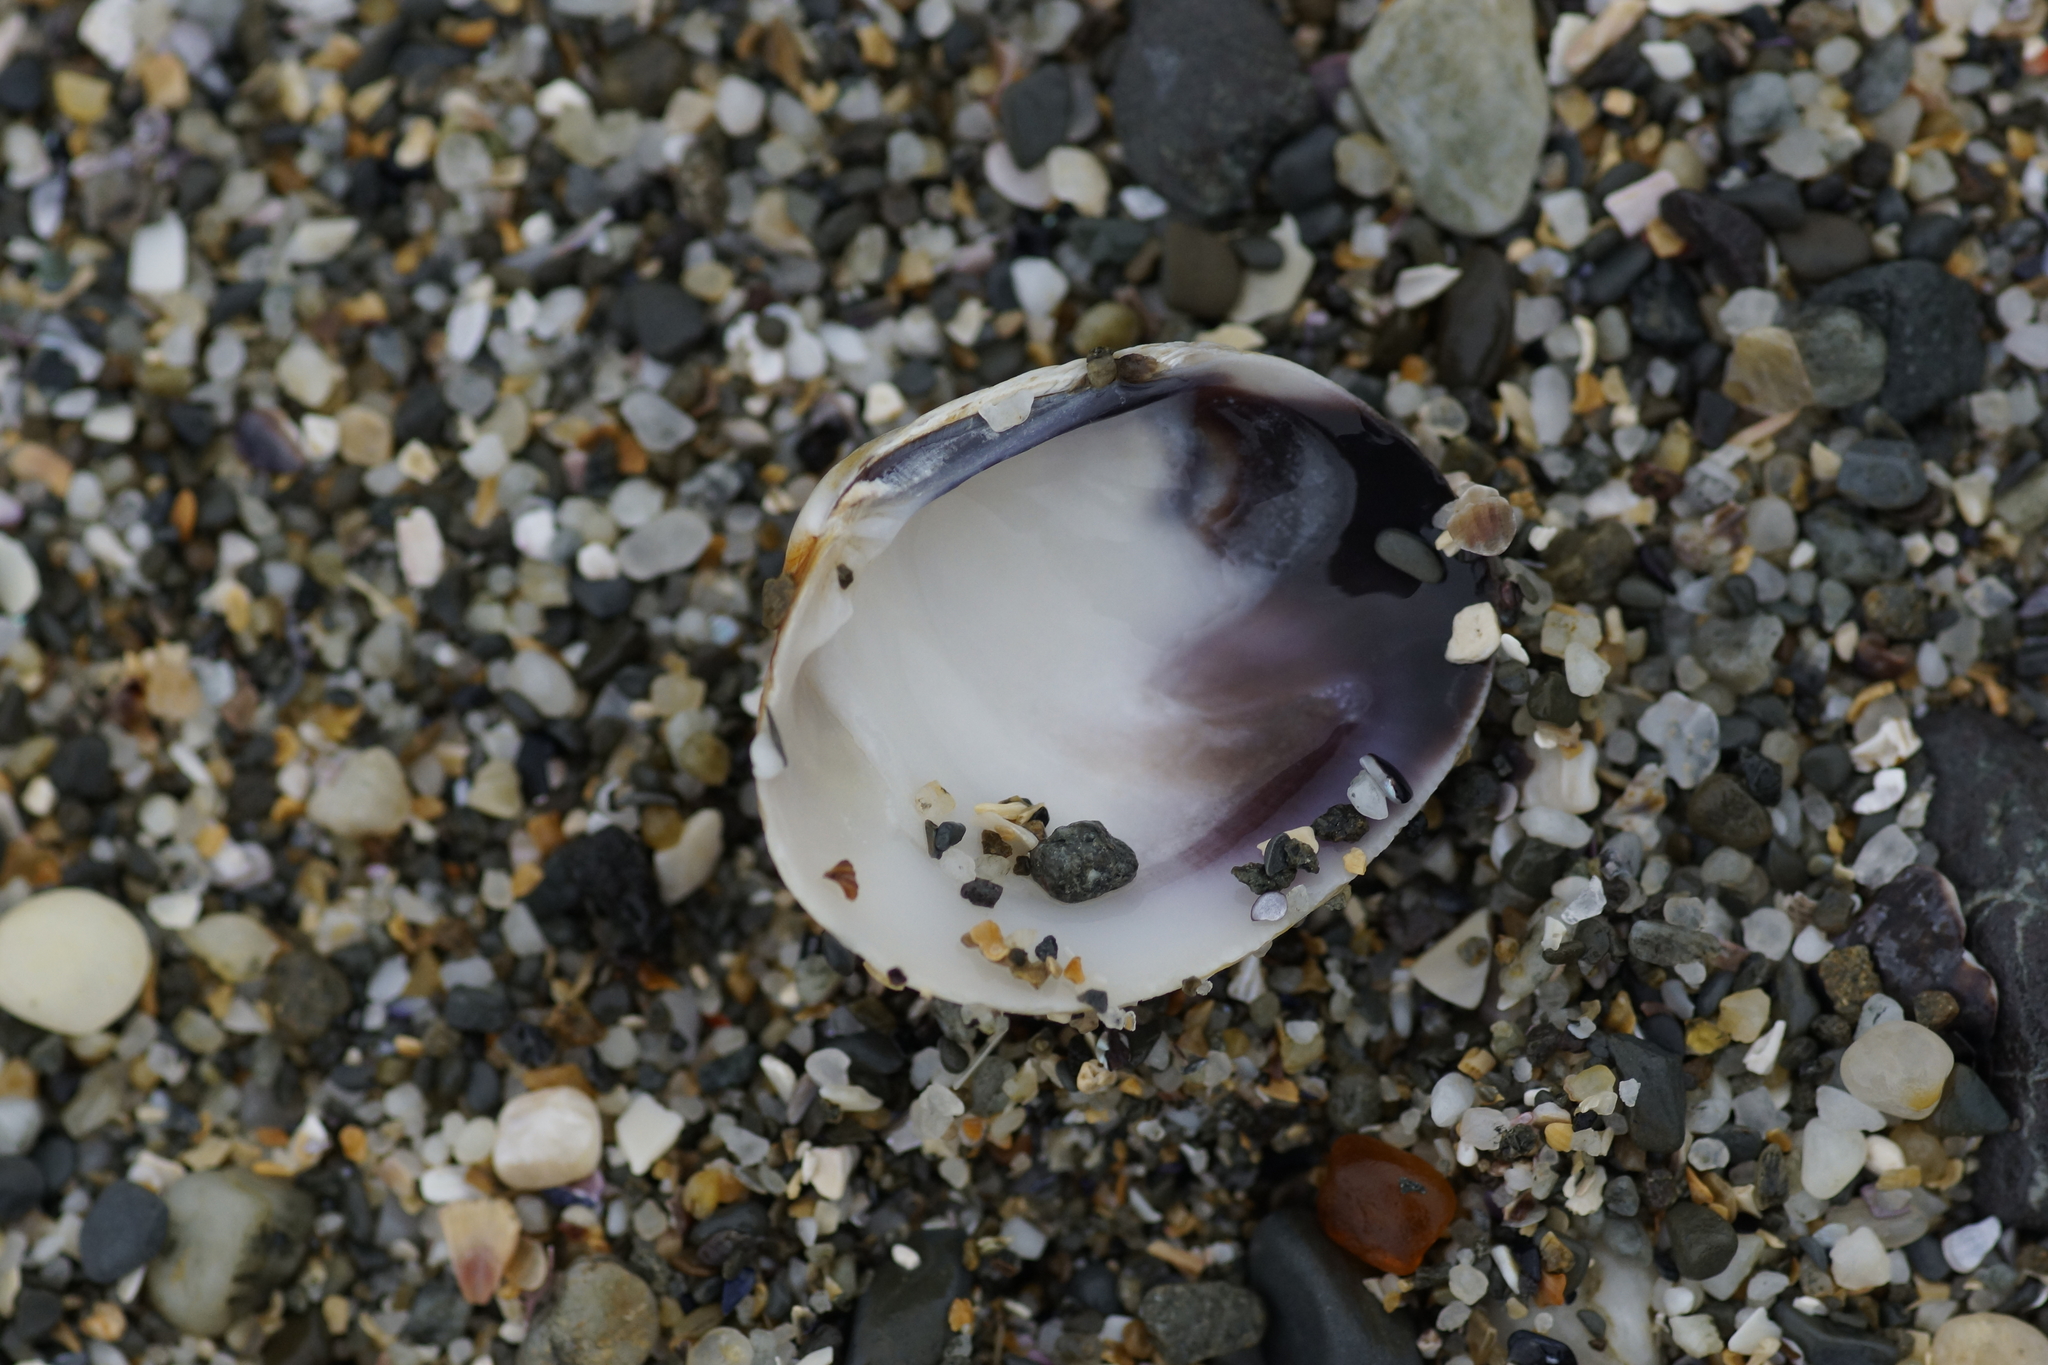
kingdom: Animalia
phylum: Mollusca
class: Bivalvia
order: Venerida
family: Veneridae
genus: Leukoma
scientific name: Leukoma crassicosta
